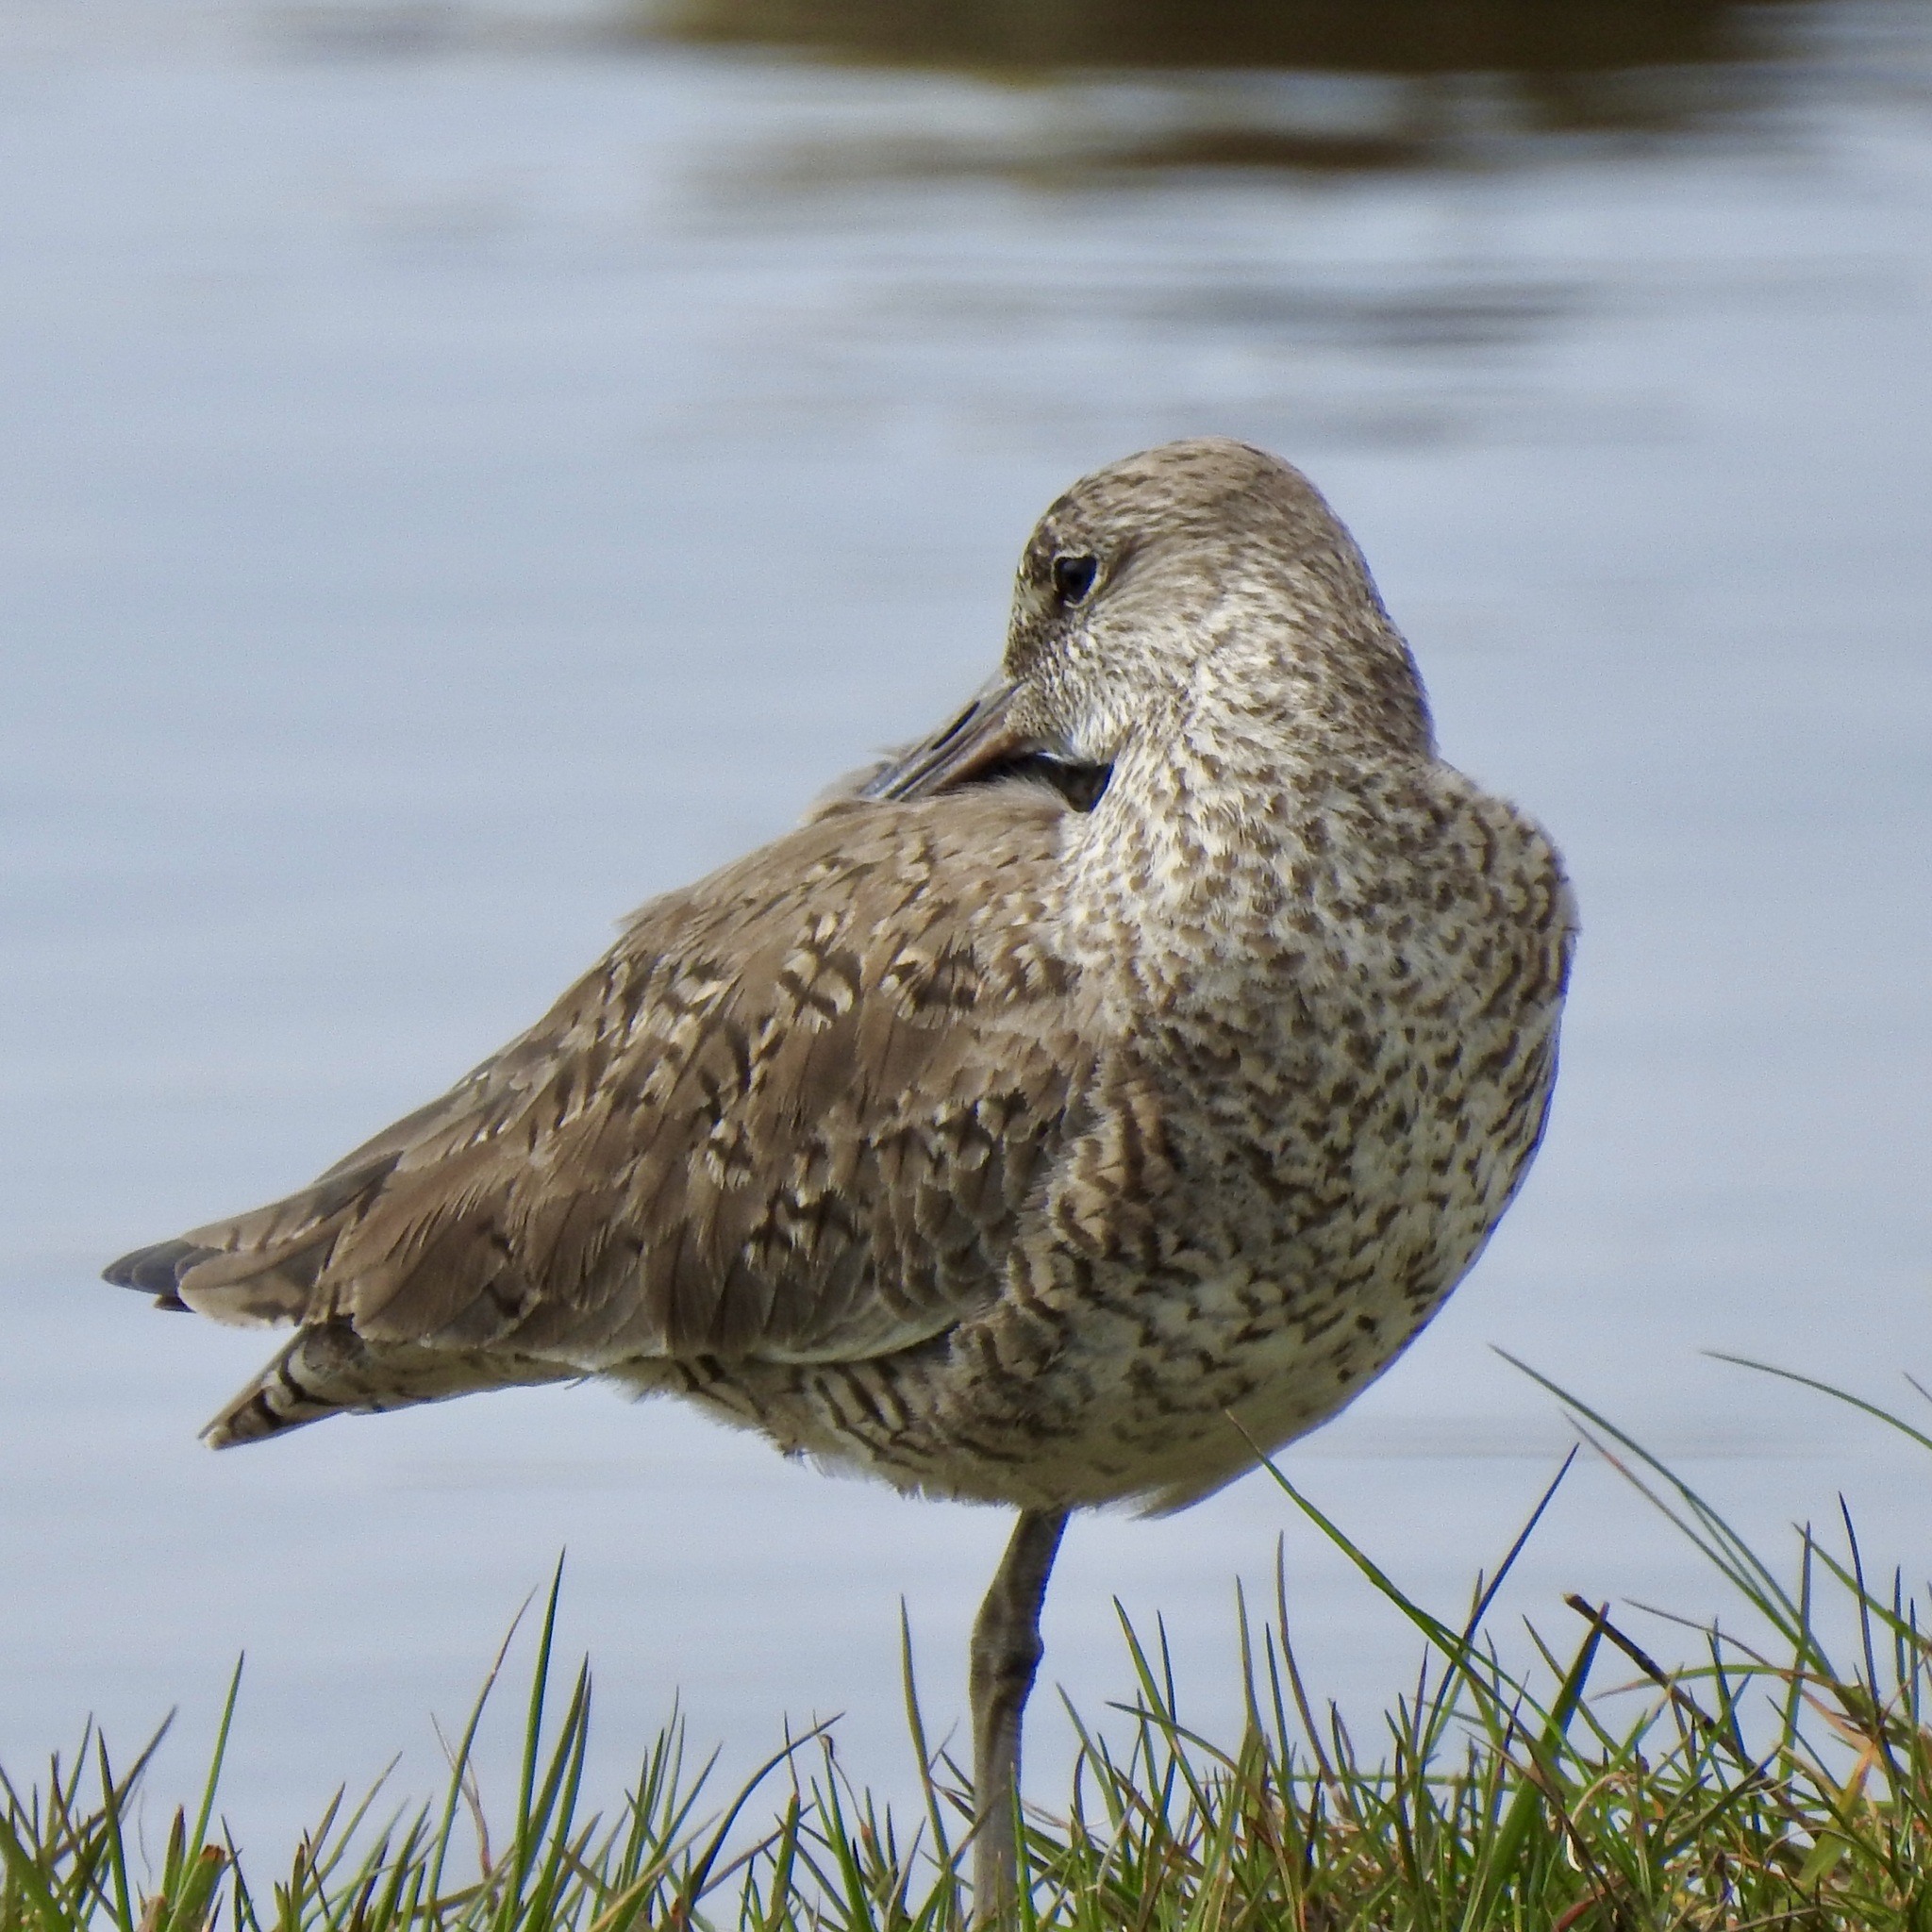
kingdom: Animalia
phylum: Chordata
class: Aves
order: Charadriiformes
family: Scolopacidae
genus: Tringa
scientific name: Tringa semipalmata
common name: Willet
